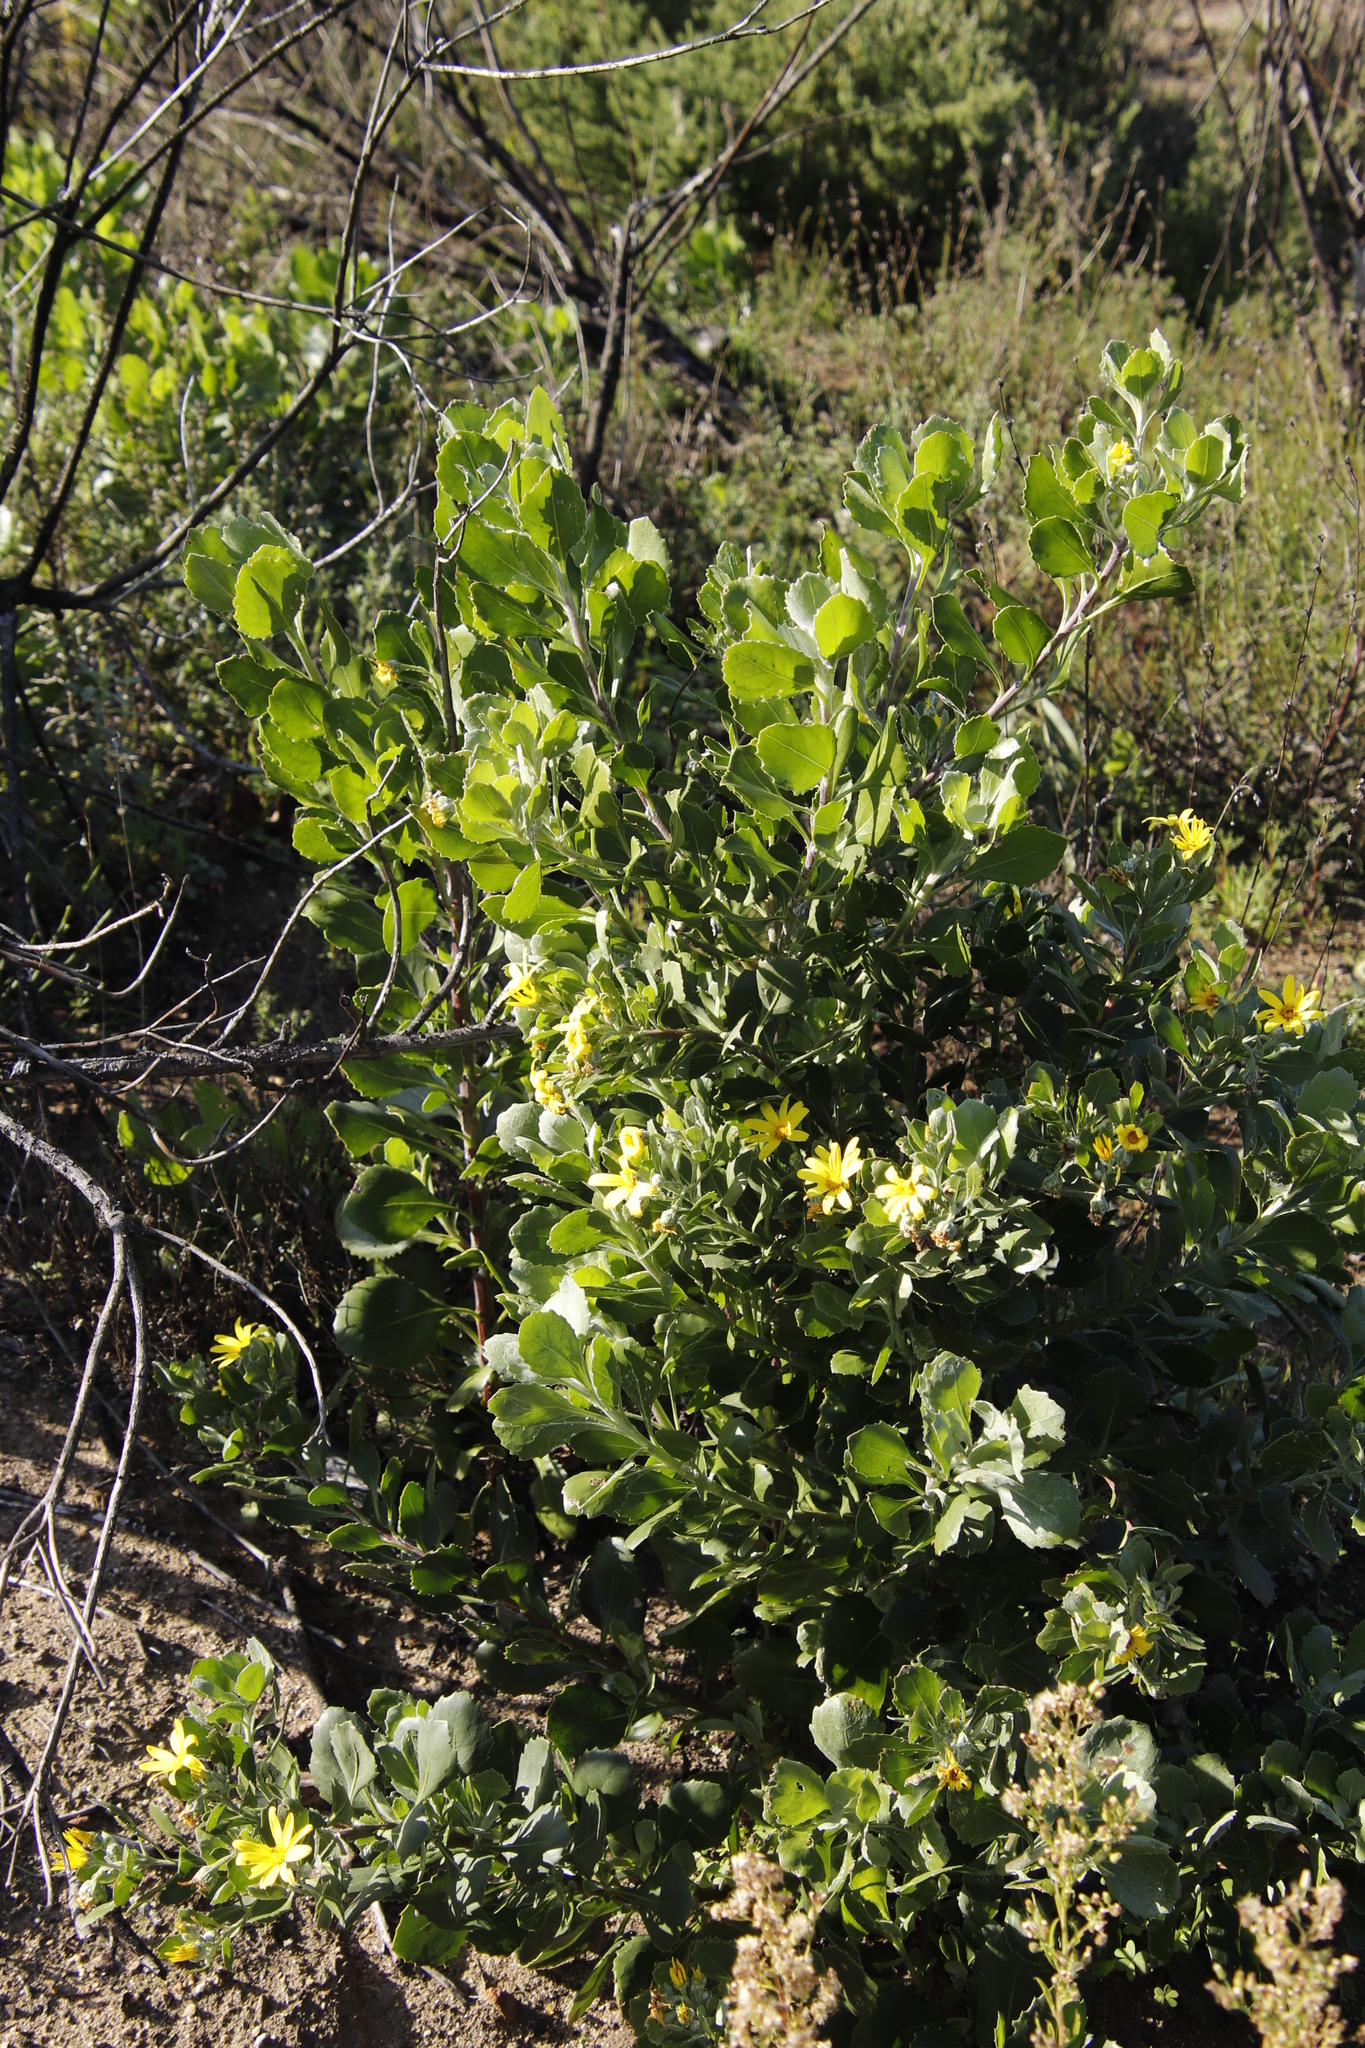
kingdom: Plantae
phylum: Tracheophyta
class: Magnoliopsida
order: Asterales
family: Asteraceae
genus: Osteospermum
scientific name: Osteospermum moniliferum
